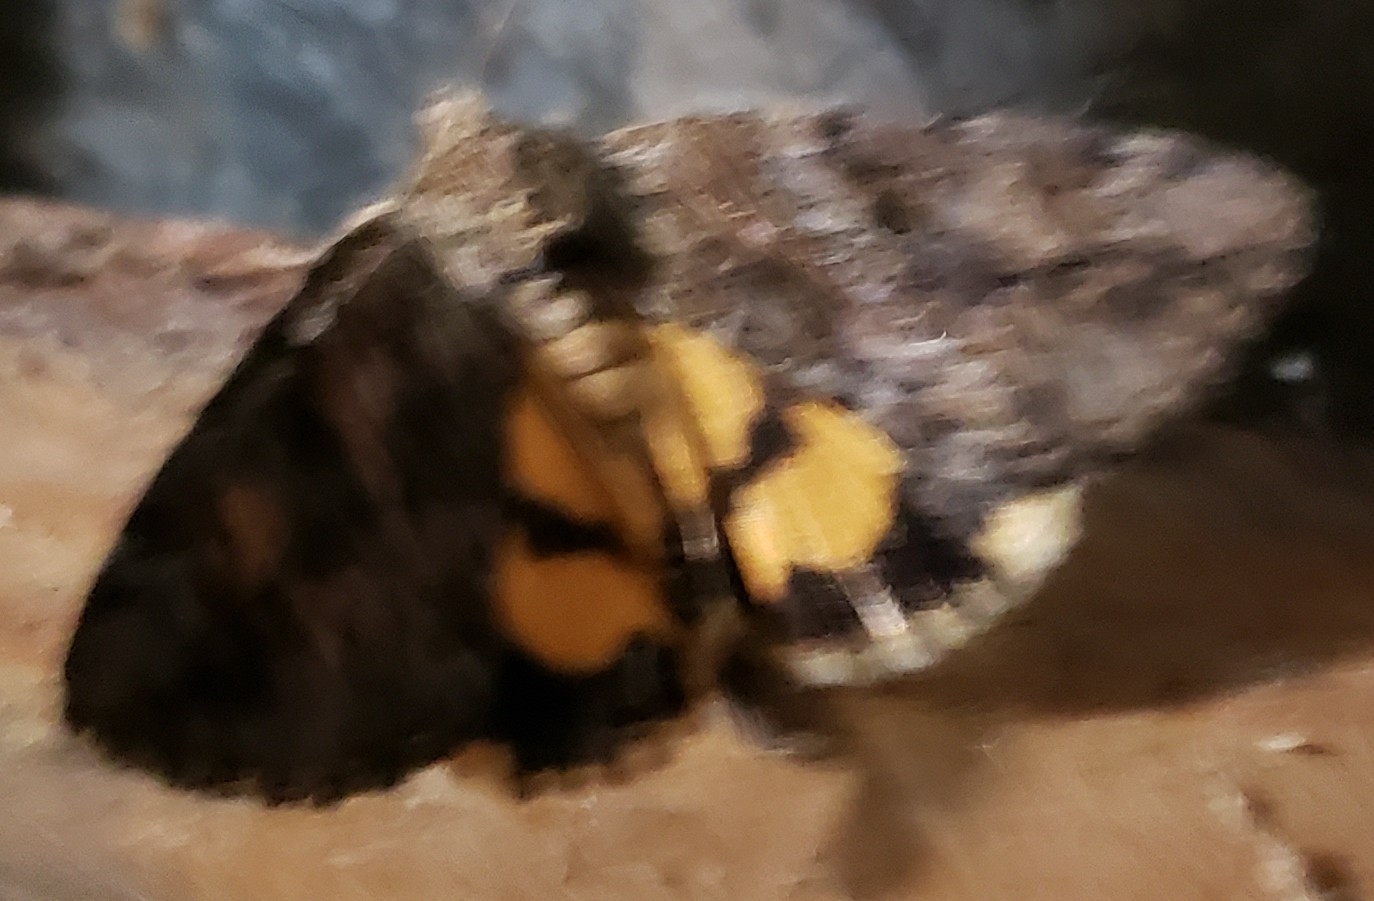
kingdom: Animalia
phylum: Arthropoda
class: Insecta
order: Lepidoptera
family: Erebidae
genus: Catocala
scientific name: Catocala aestivalia
